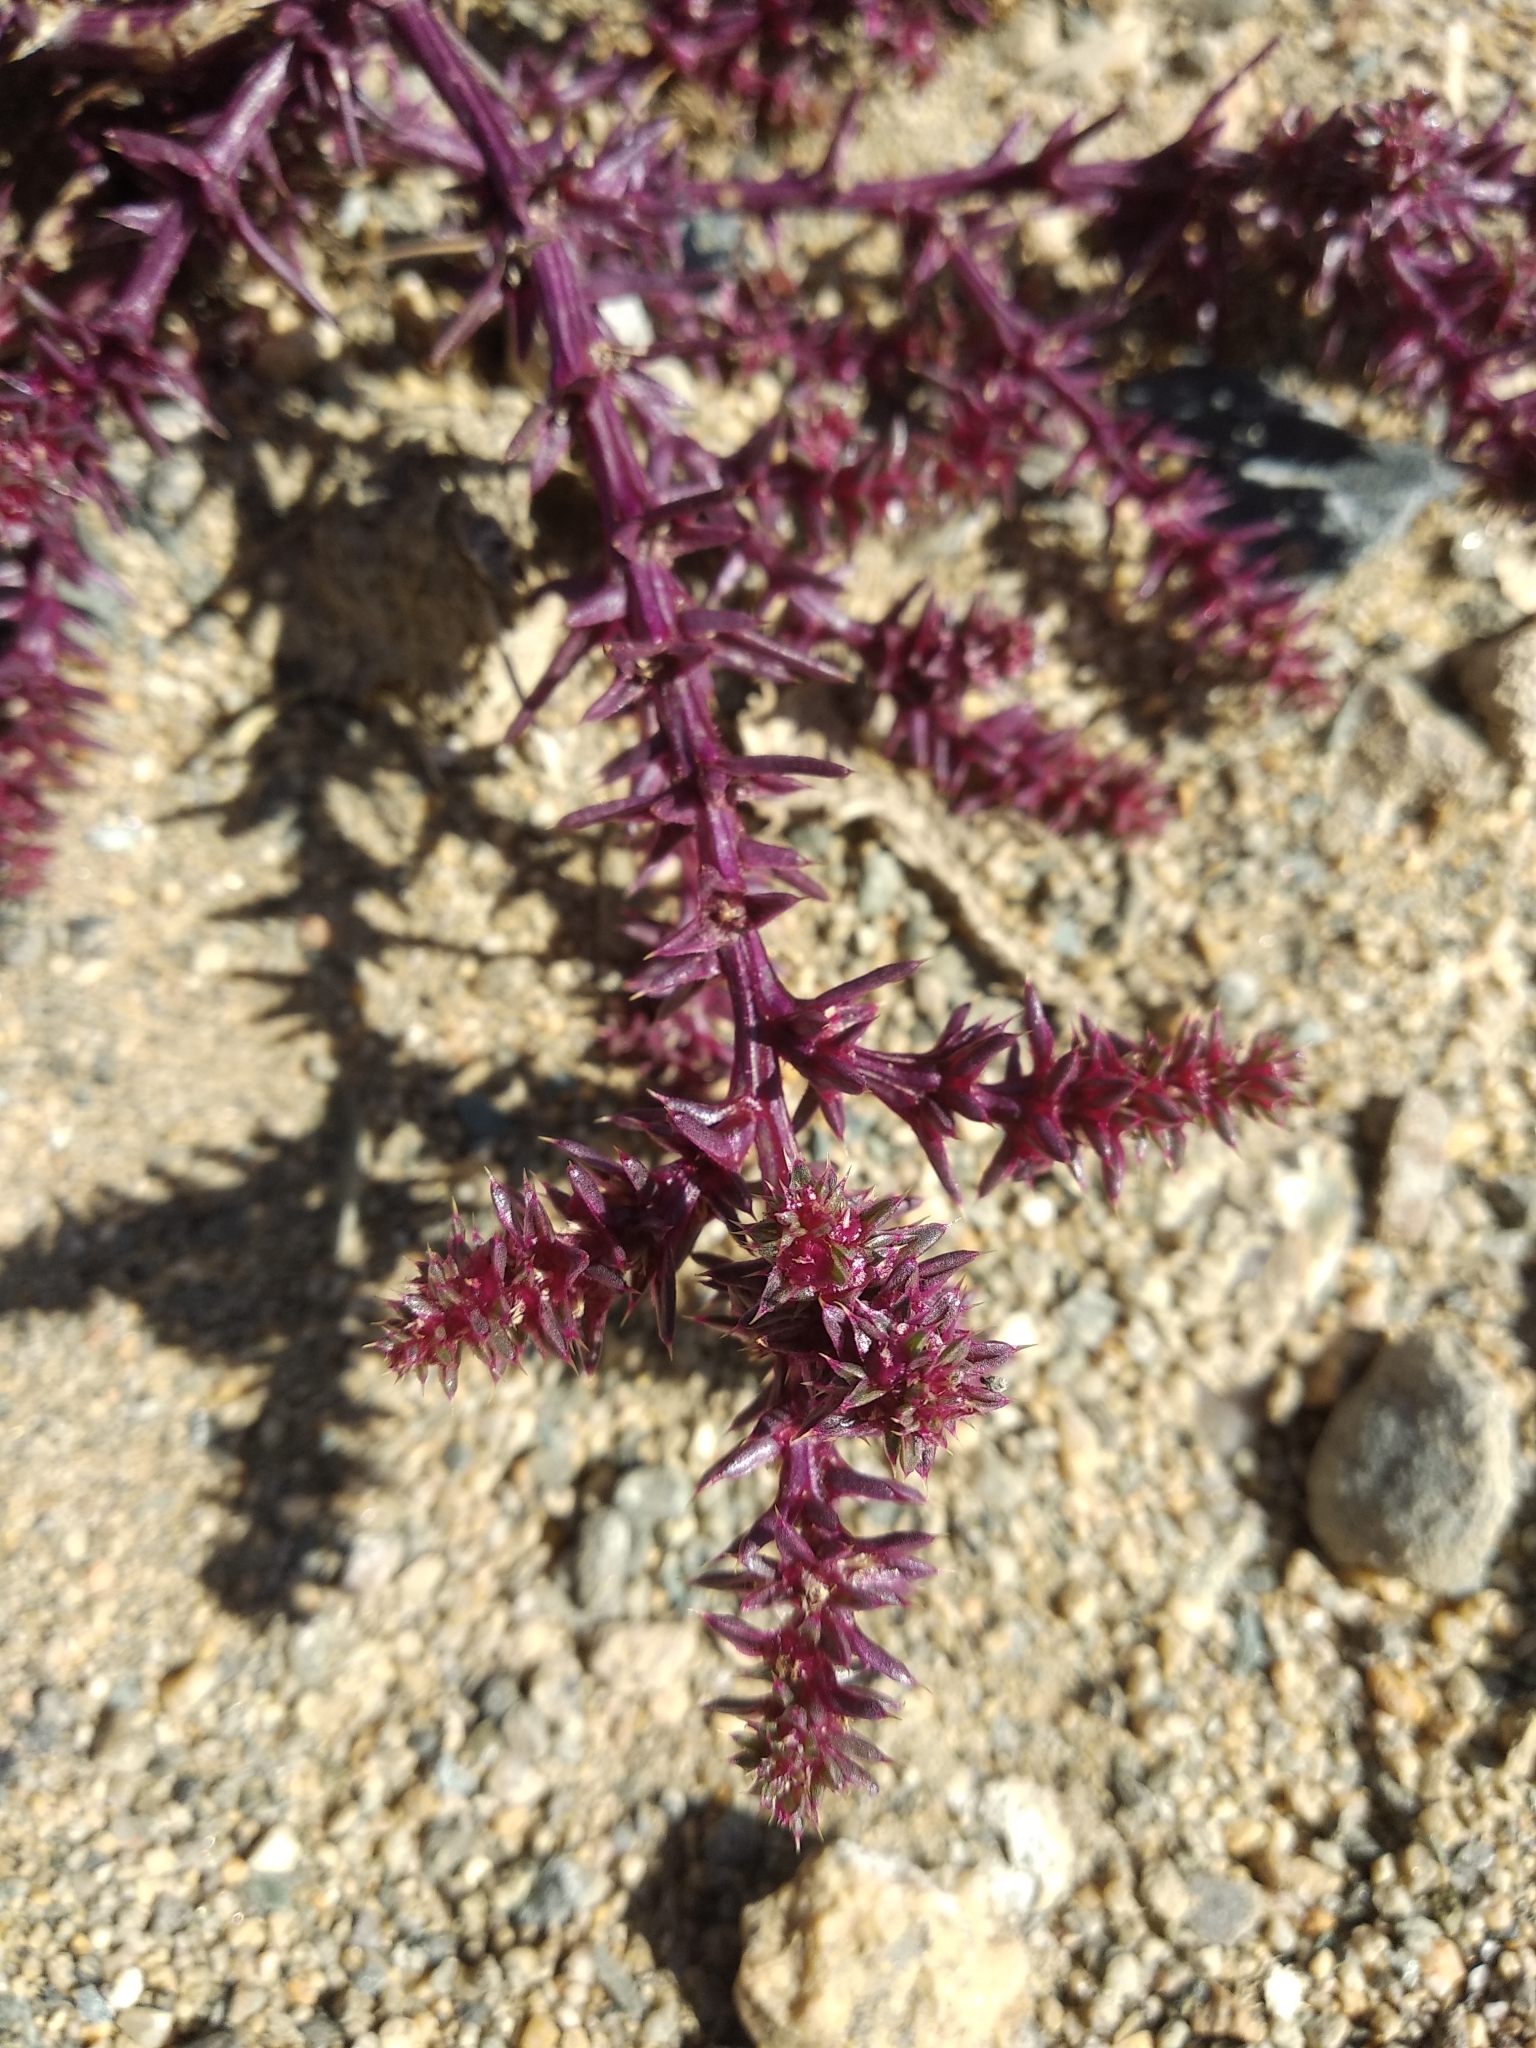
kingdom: Plantae
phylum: Tracheophyta
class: Magnoliopsida
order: Caryophyllales
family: Amaranthaceae
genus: Salsola
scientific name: Salsola collina
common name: Tumbleweed
